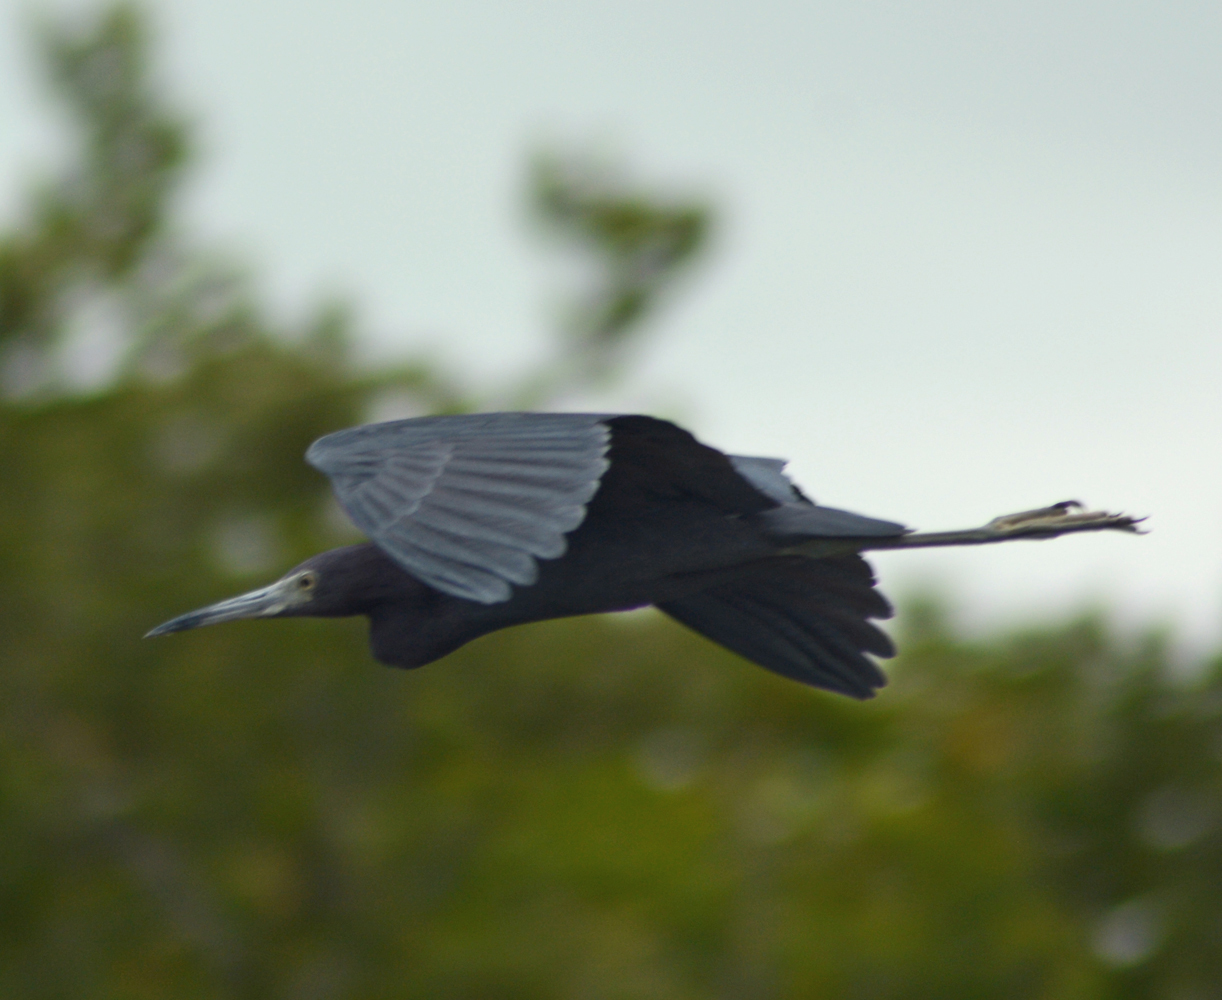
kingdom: Animalia
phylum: Chordata
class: Aves
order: Pelecaniformes
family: Ardeidae
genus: Egretta
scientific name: Egretta caerulea
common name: Little blue heron
